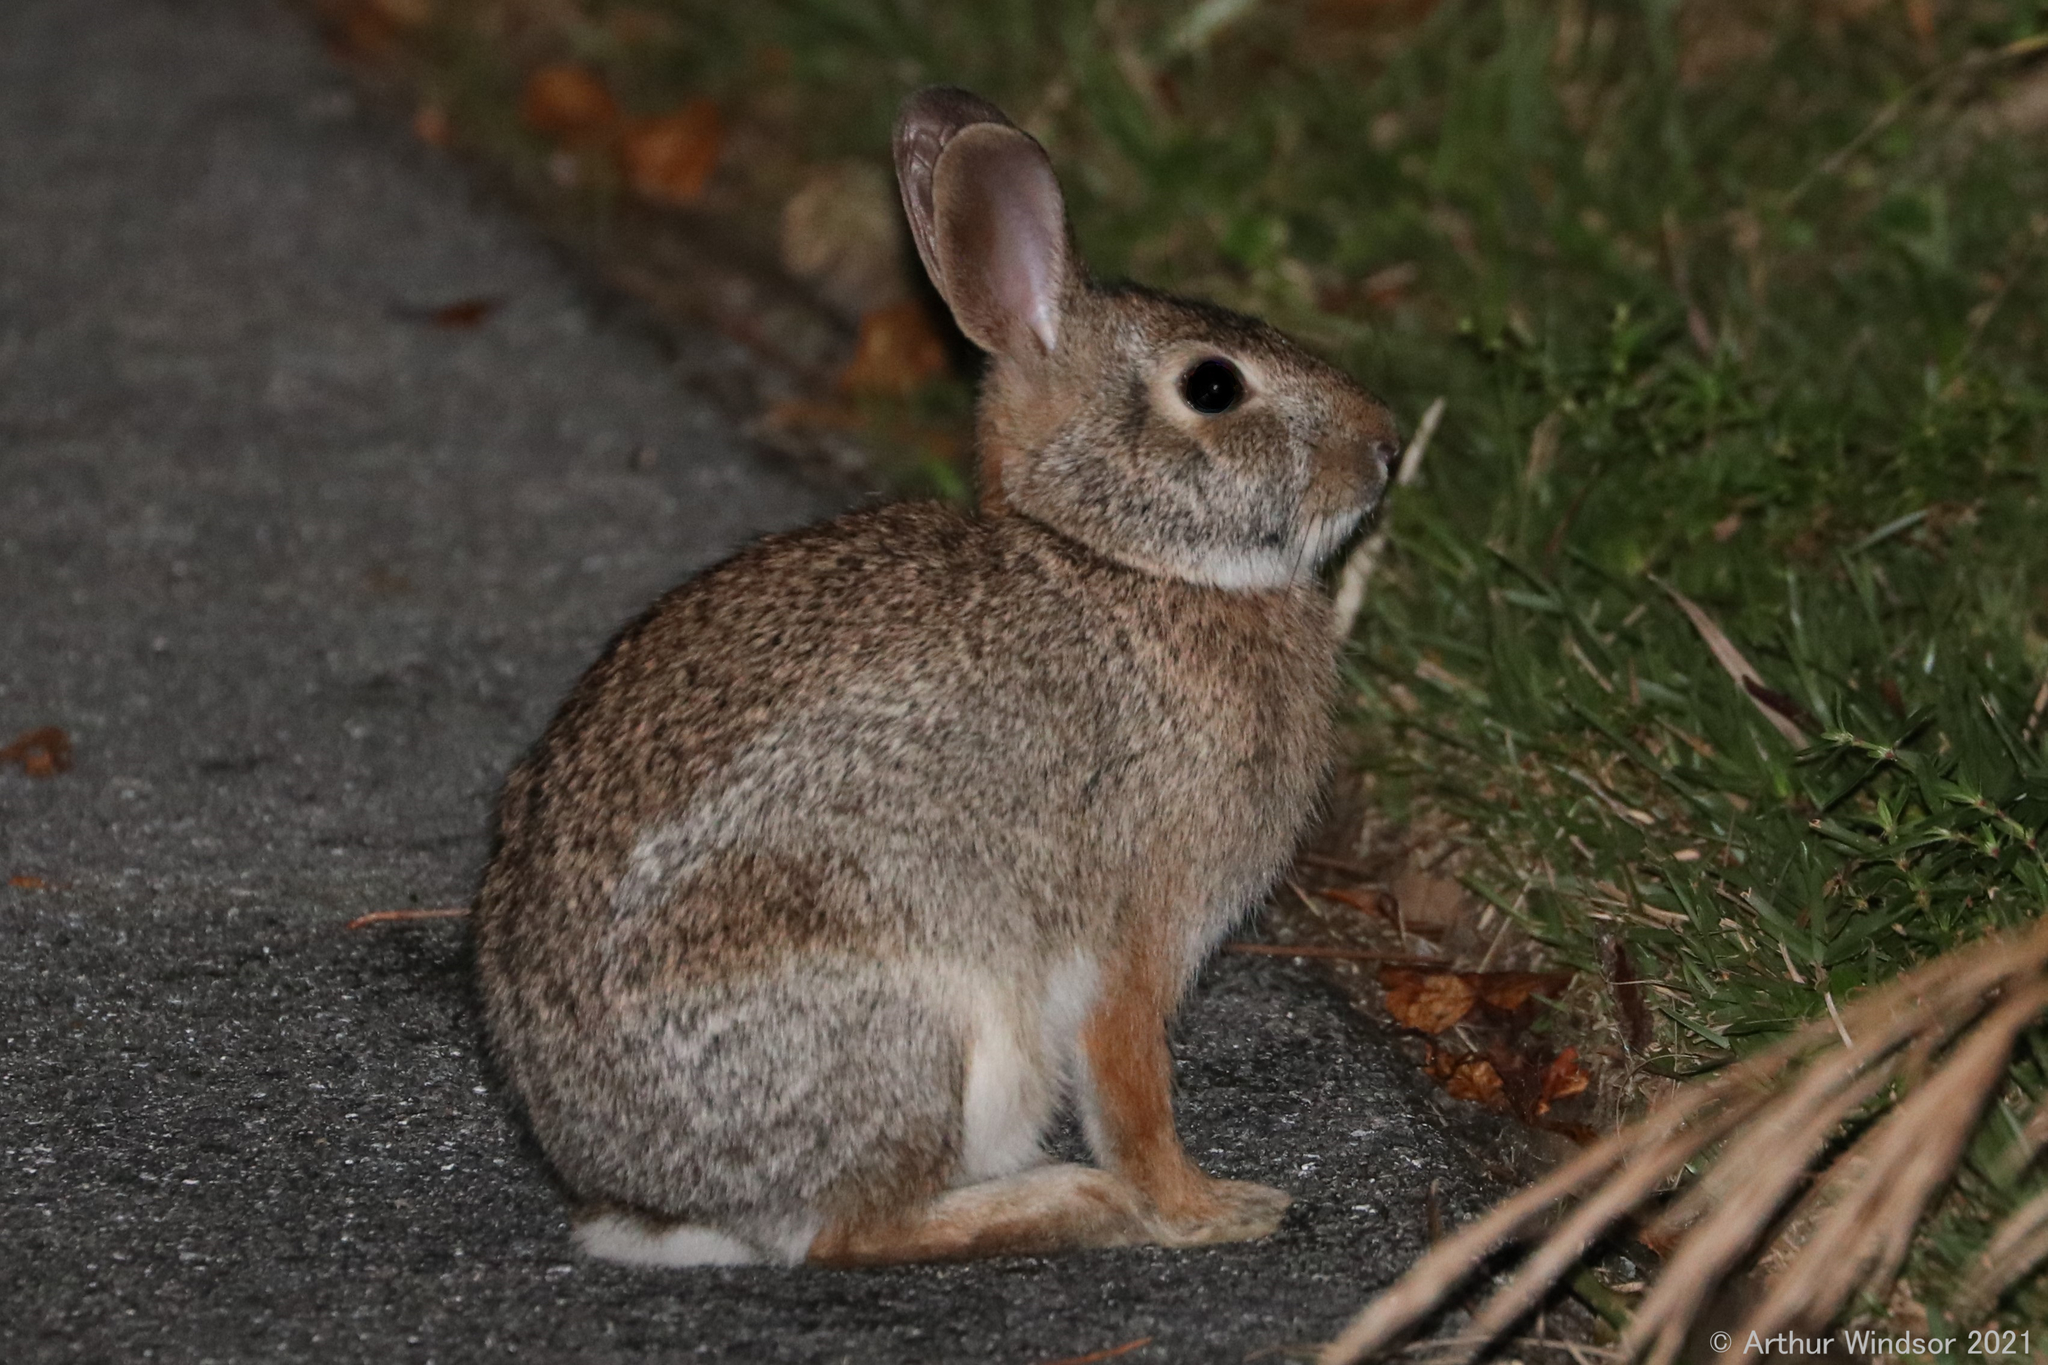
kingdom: Animalia
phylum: Chordata
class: Mammalia
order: Lagomorpha
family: Leporidae
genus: Sylvilagus
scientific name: Sylvilagus floridanus
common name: Eastern cottontail
